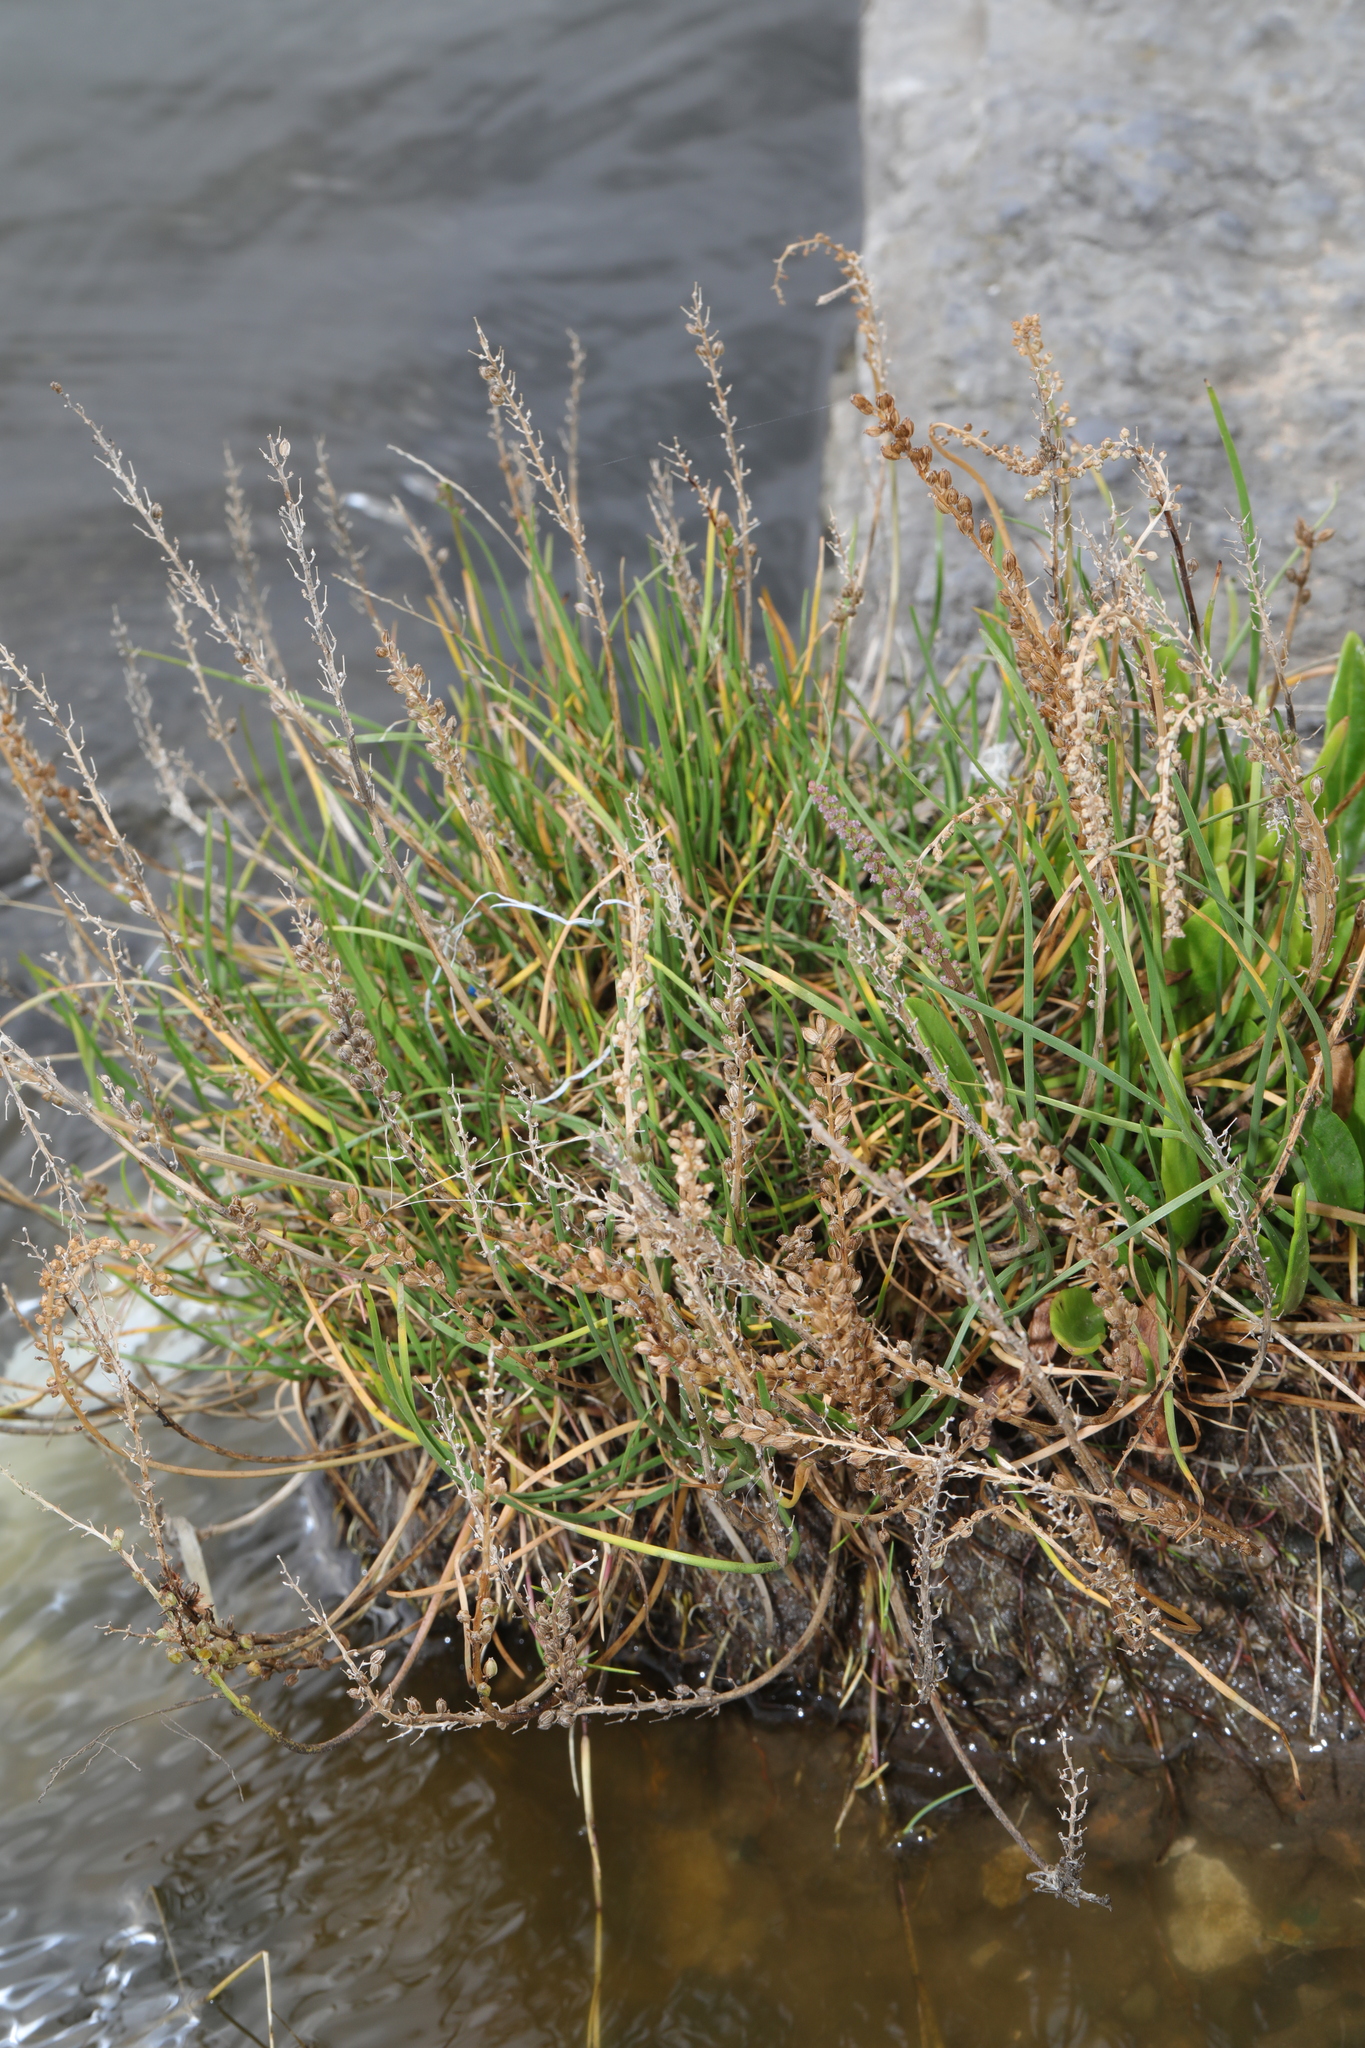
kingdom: Plantae
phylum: Tracheophyta
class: Liliopsida
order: Alismatales
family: Juncaginaceae
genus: Triglochin
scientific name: Triglochin maritima
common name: Sea arrowgrass
